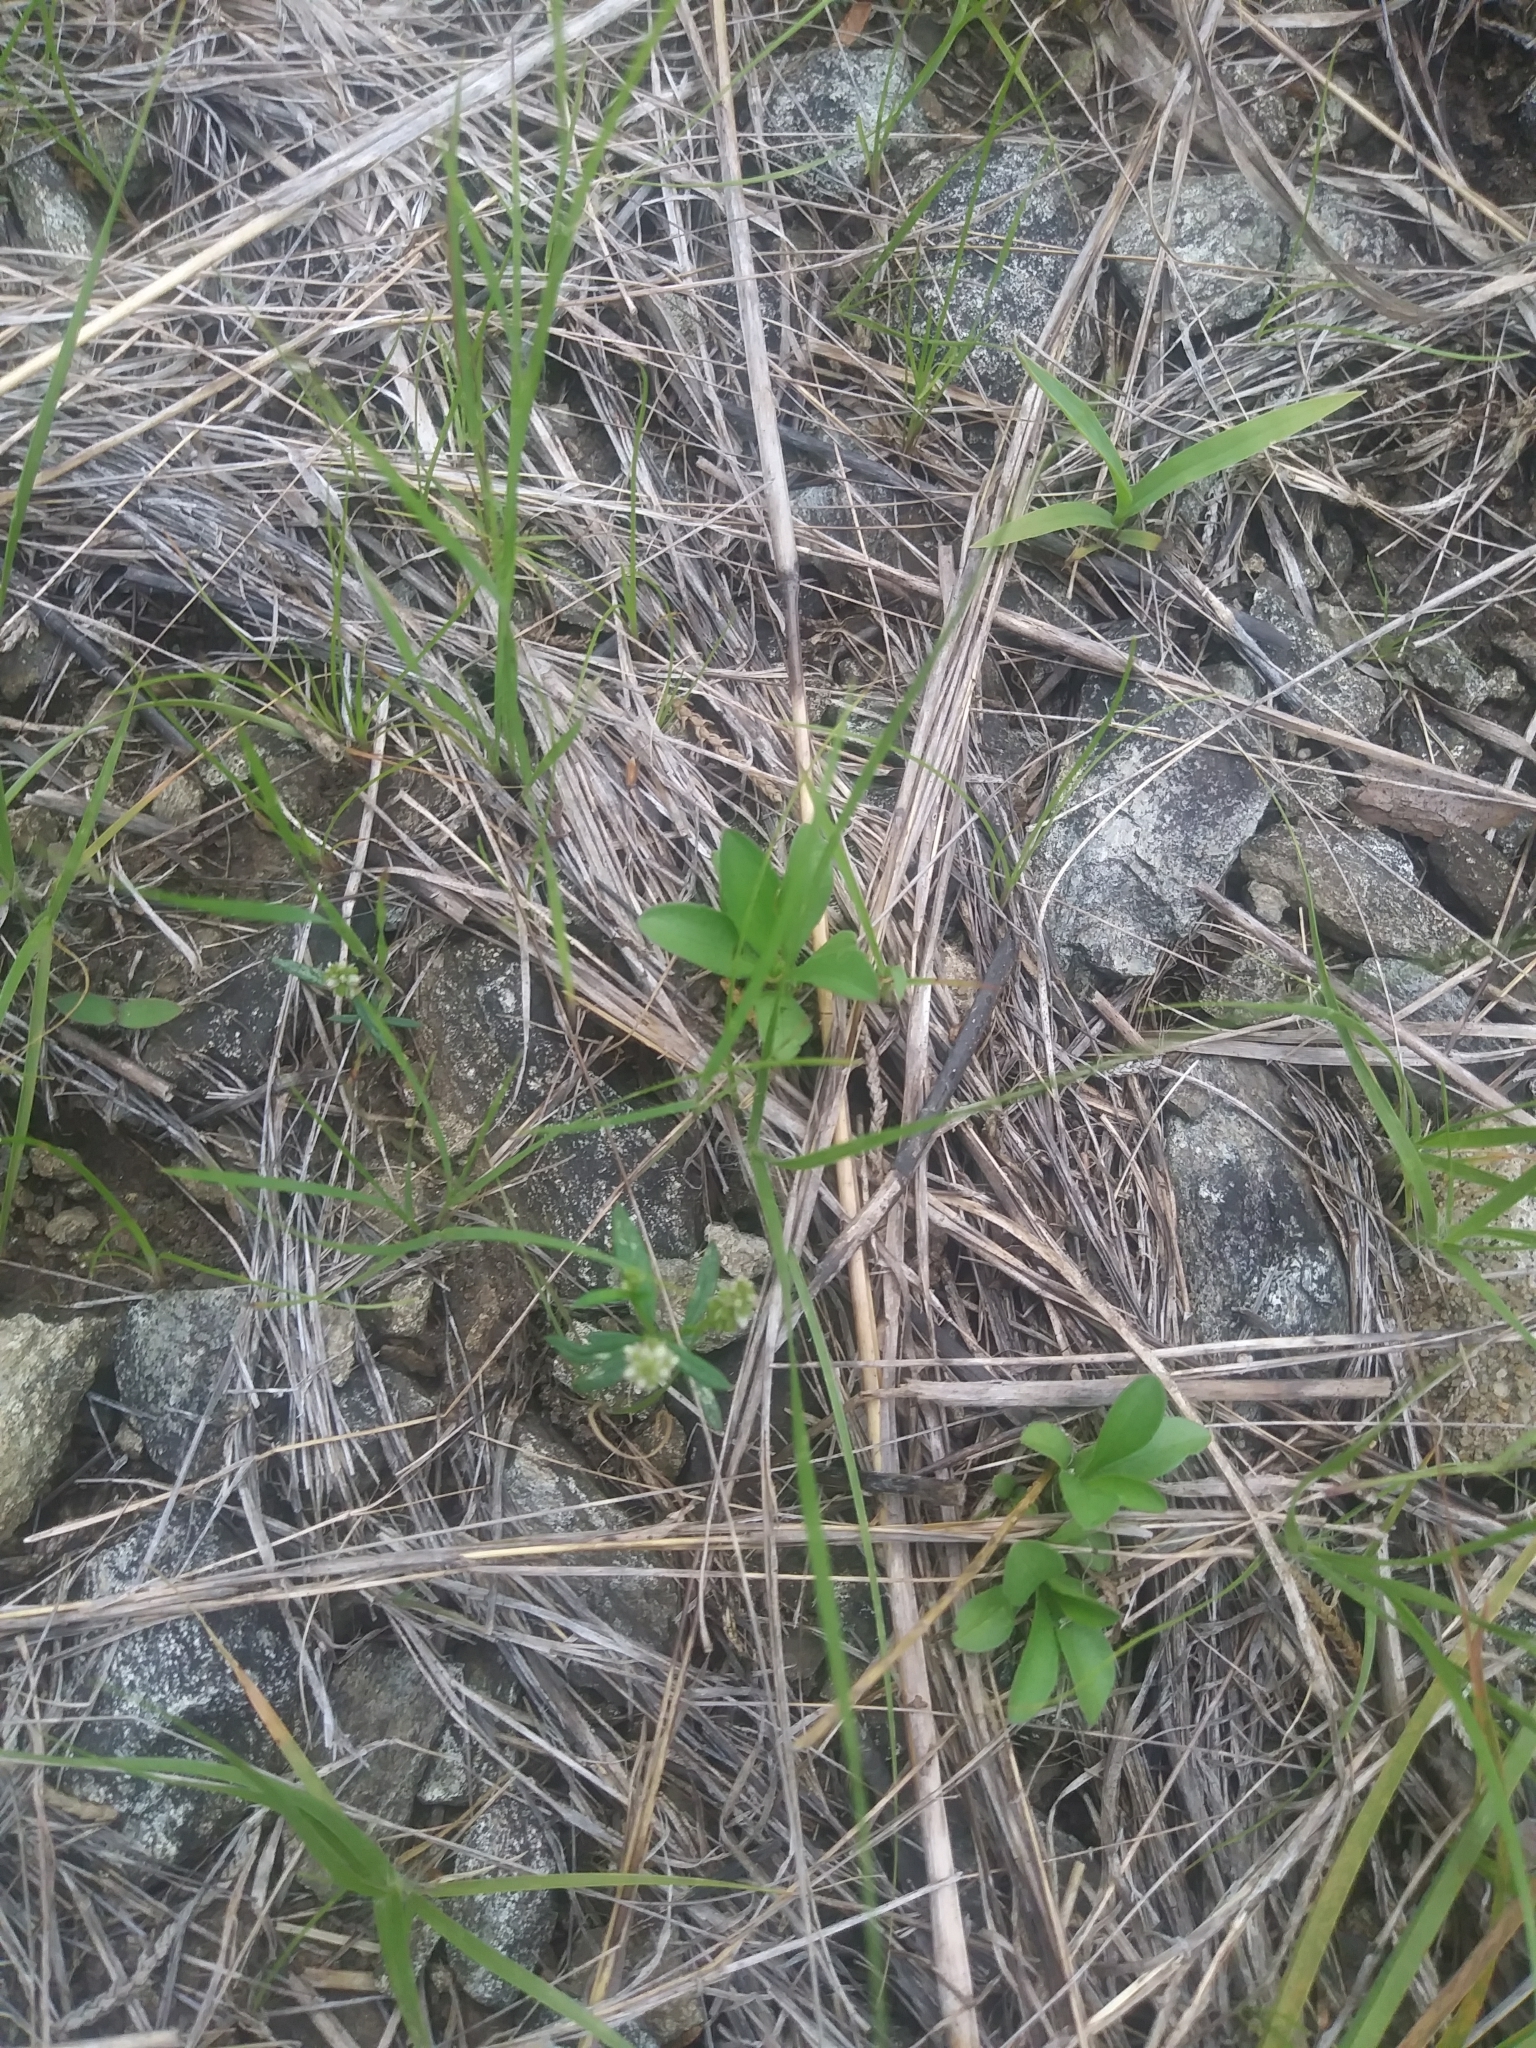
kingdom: Plantae
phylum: Tracheophyta
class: Magnoliopsida
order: Fabales
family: Polygalaceae
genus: Polygala
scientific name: Polygala verticillata
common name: Whorl milkwort
